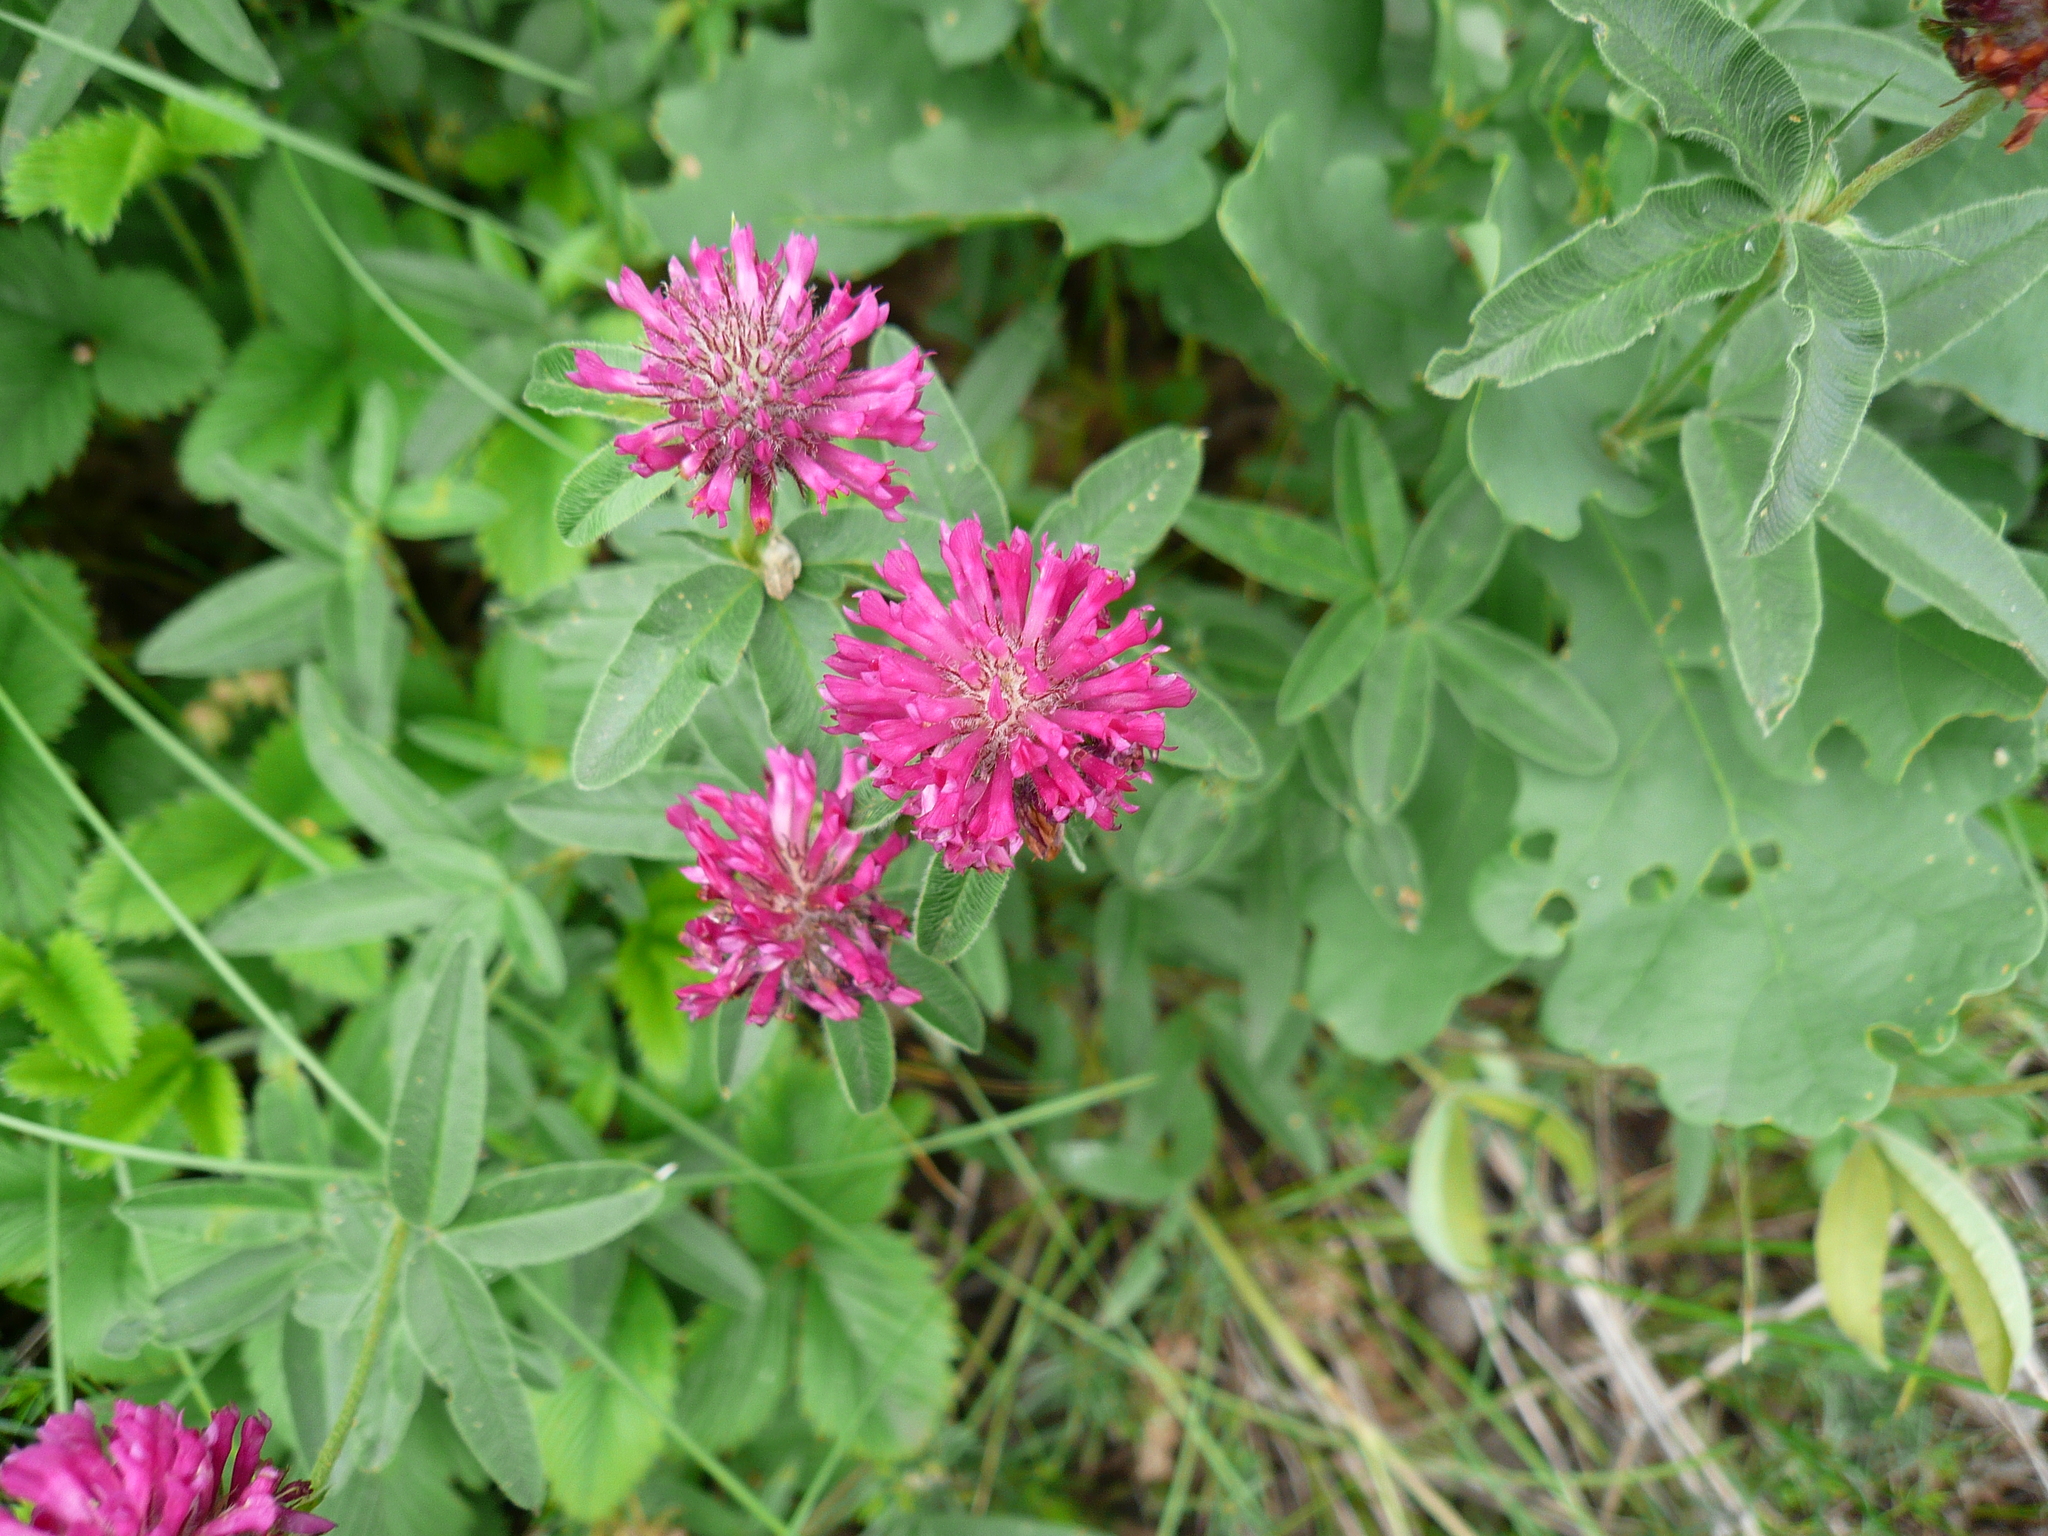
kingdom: Plantae
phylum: Tracheophyta
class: Magnoliopsida
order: Fabales
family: Fabaceae
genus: Trifolium
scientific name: Trifolium alpestre
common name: Owl-head clover
